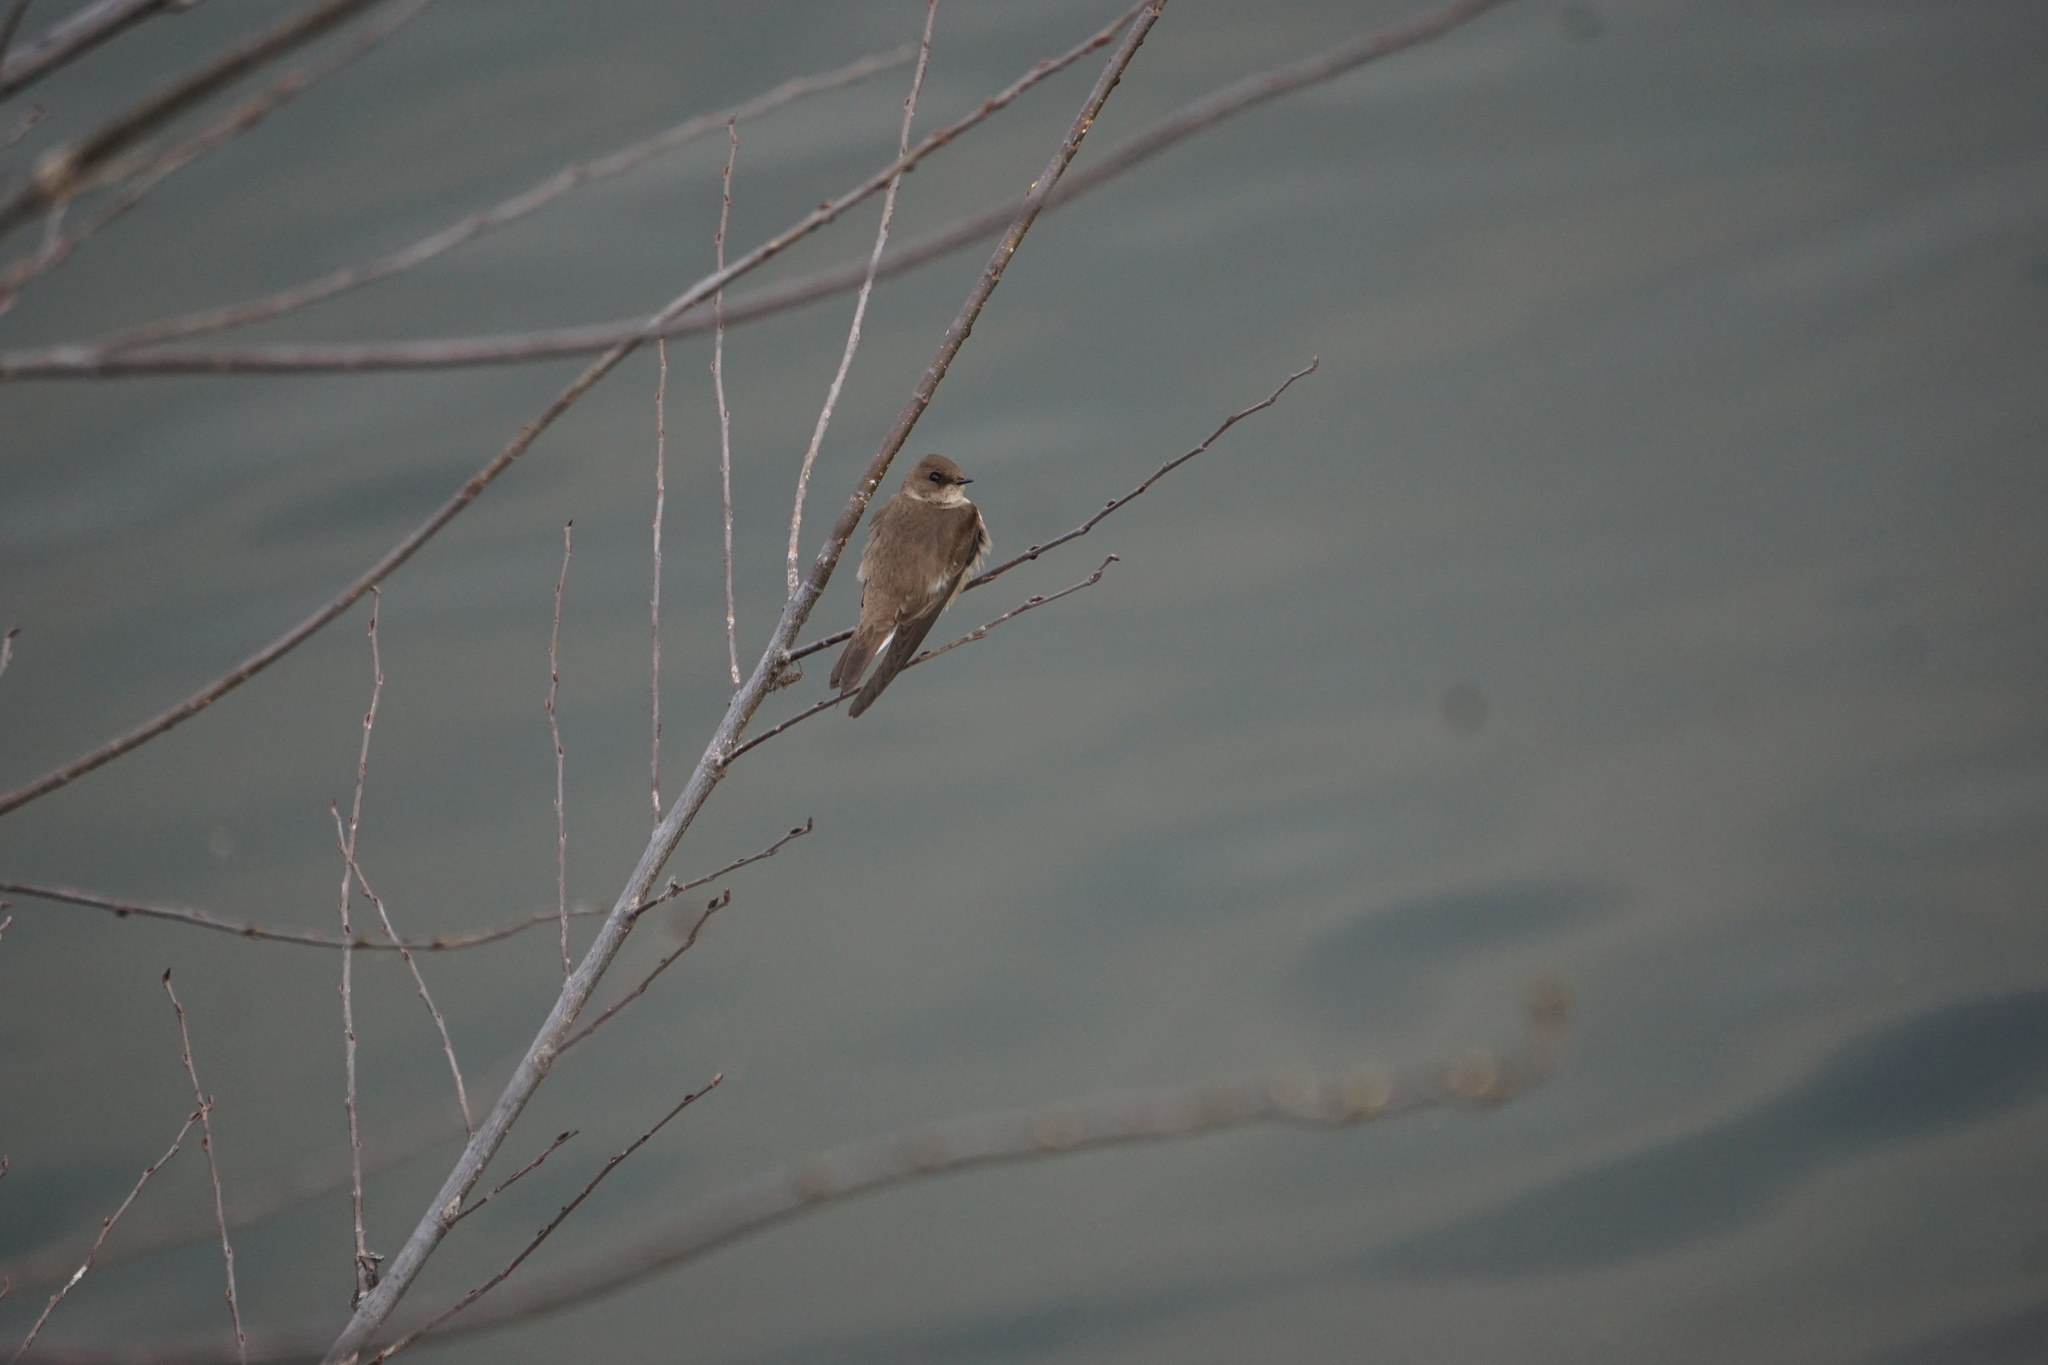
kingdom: Animalia
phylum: Chordata
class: Aves
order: Passeriformes
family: Hirundinidae
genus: Stelgidopteryx
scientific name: Stelgidopteryx serripennis
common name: Northern rough-winged swallow
